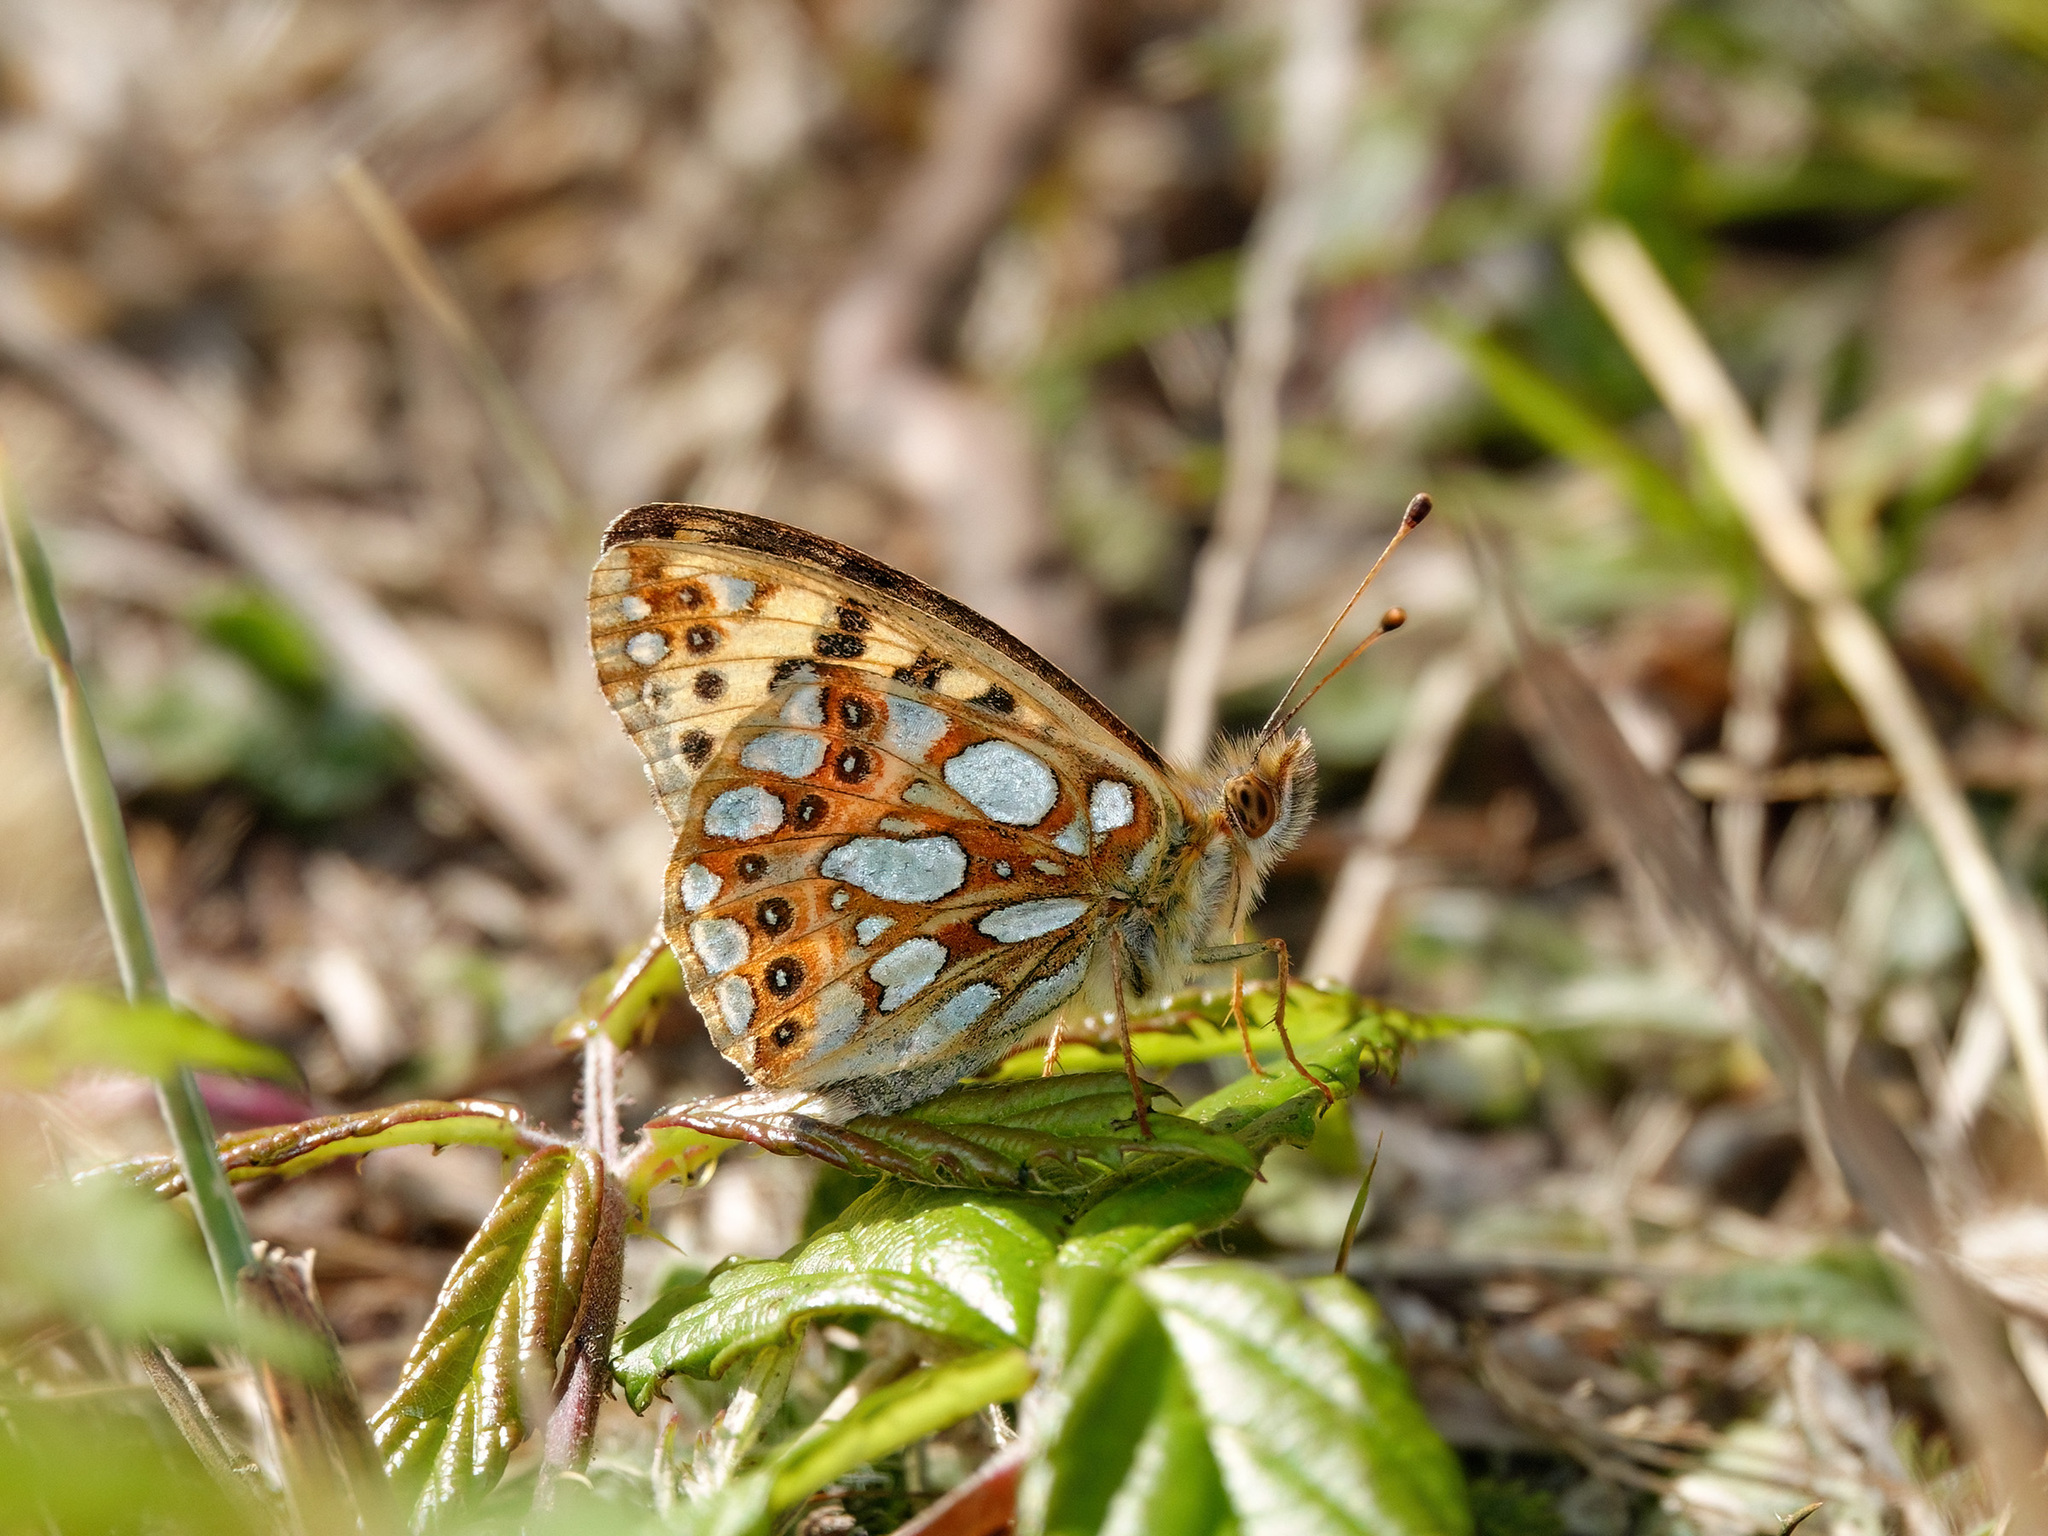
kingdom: Animalia
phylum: Arthropoda
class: Insecta
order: Lepidoptera
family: Nymphalidae
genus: Issoria
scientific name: Issoria lathonia
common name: Queen of spain fritillary
